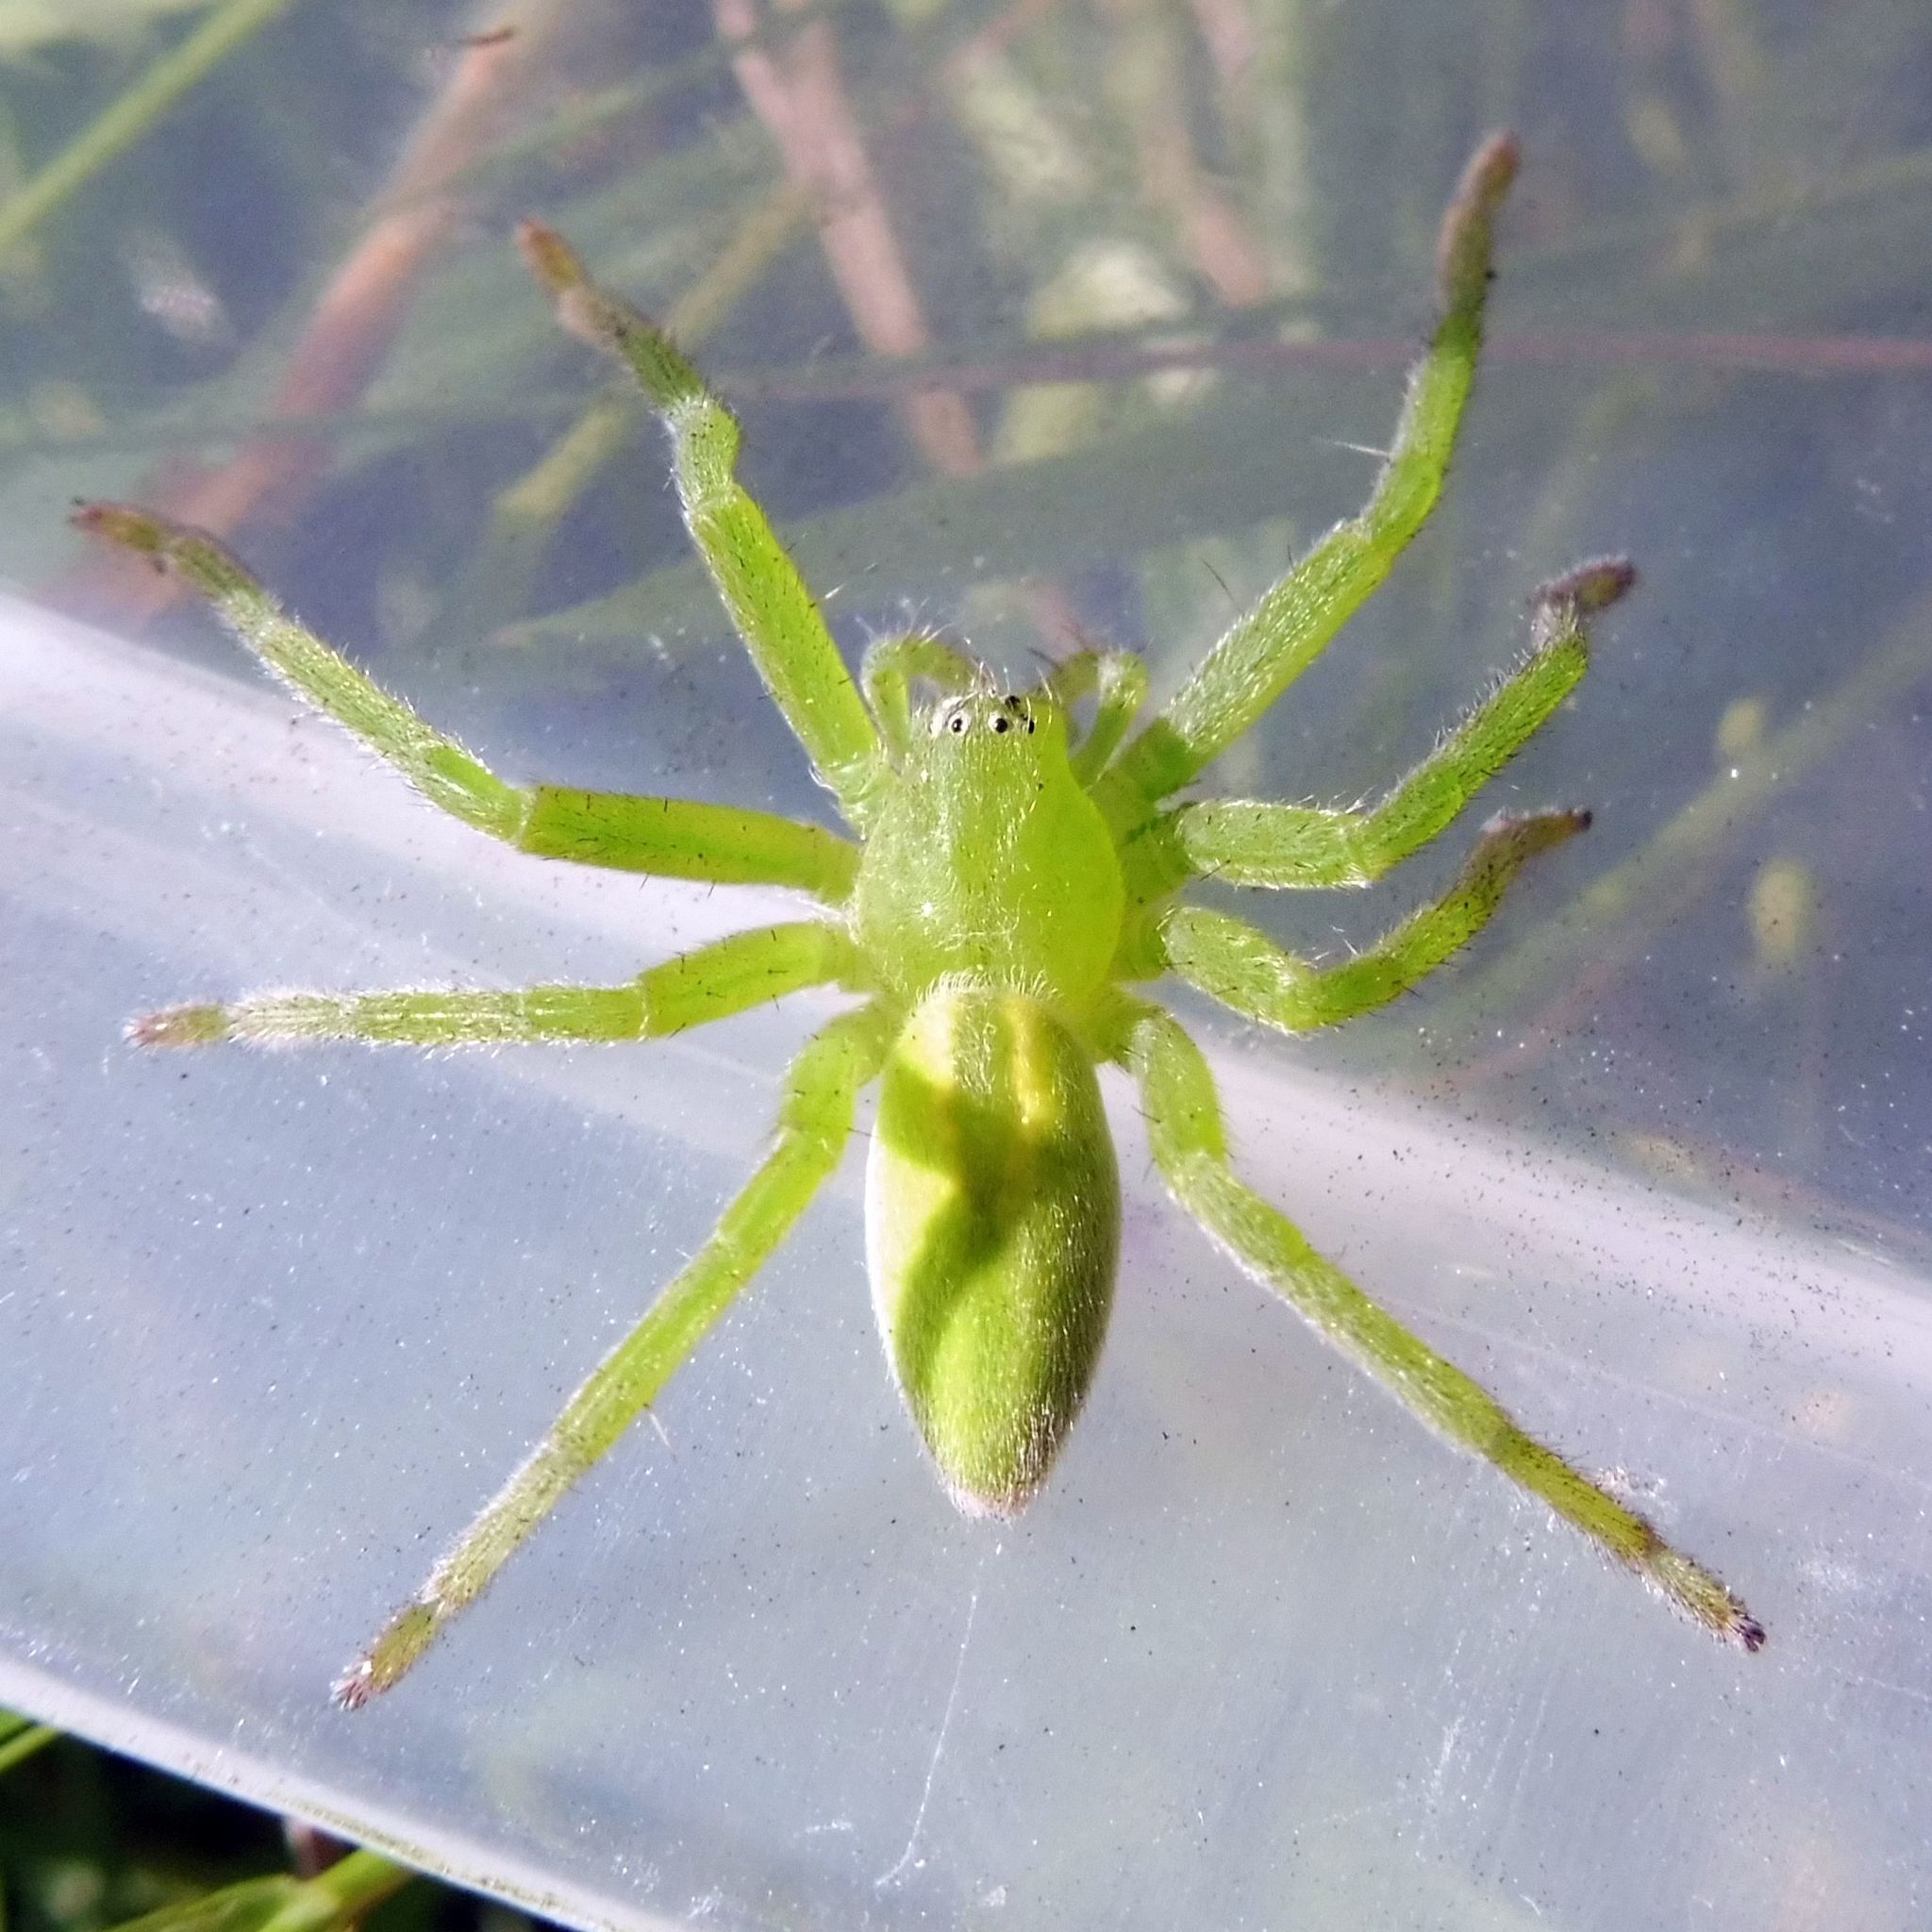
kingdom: Animalia
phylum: Arthropoda
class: Arachnida
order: Araneae
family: Sparassidae
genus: Micrommata
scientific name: Micrommata virescens
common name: Green spider
